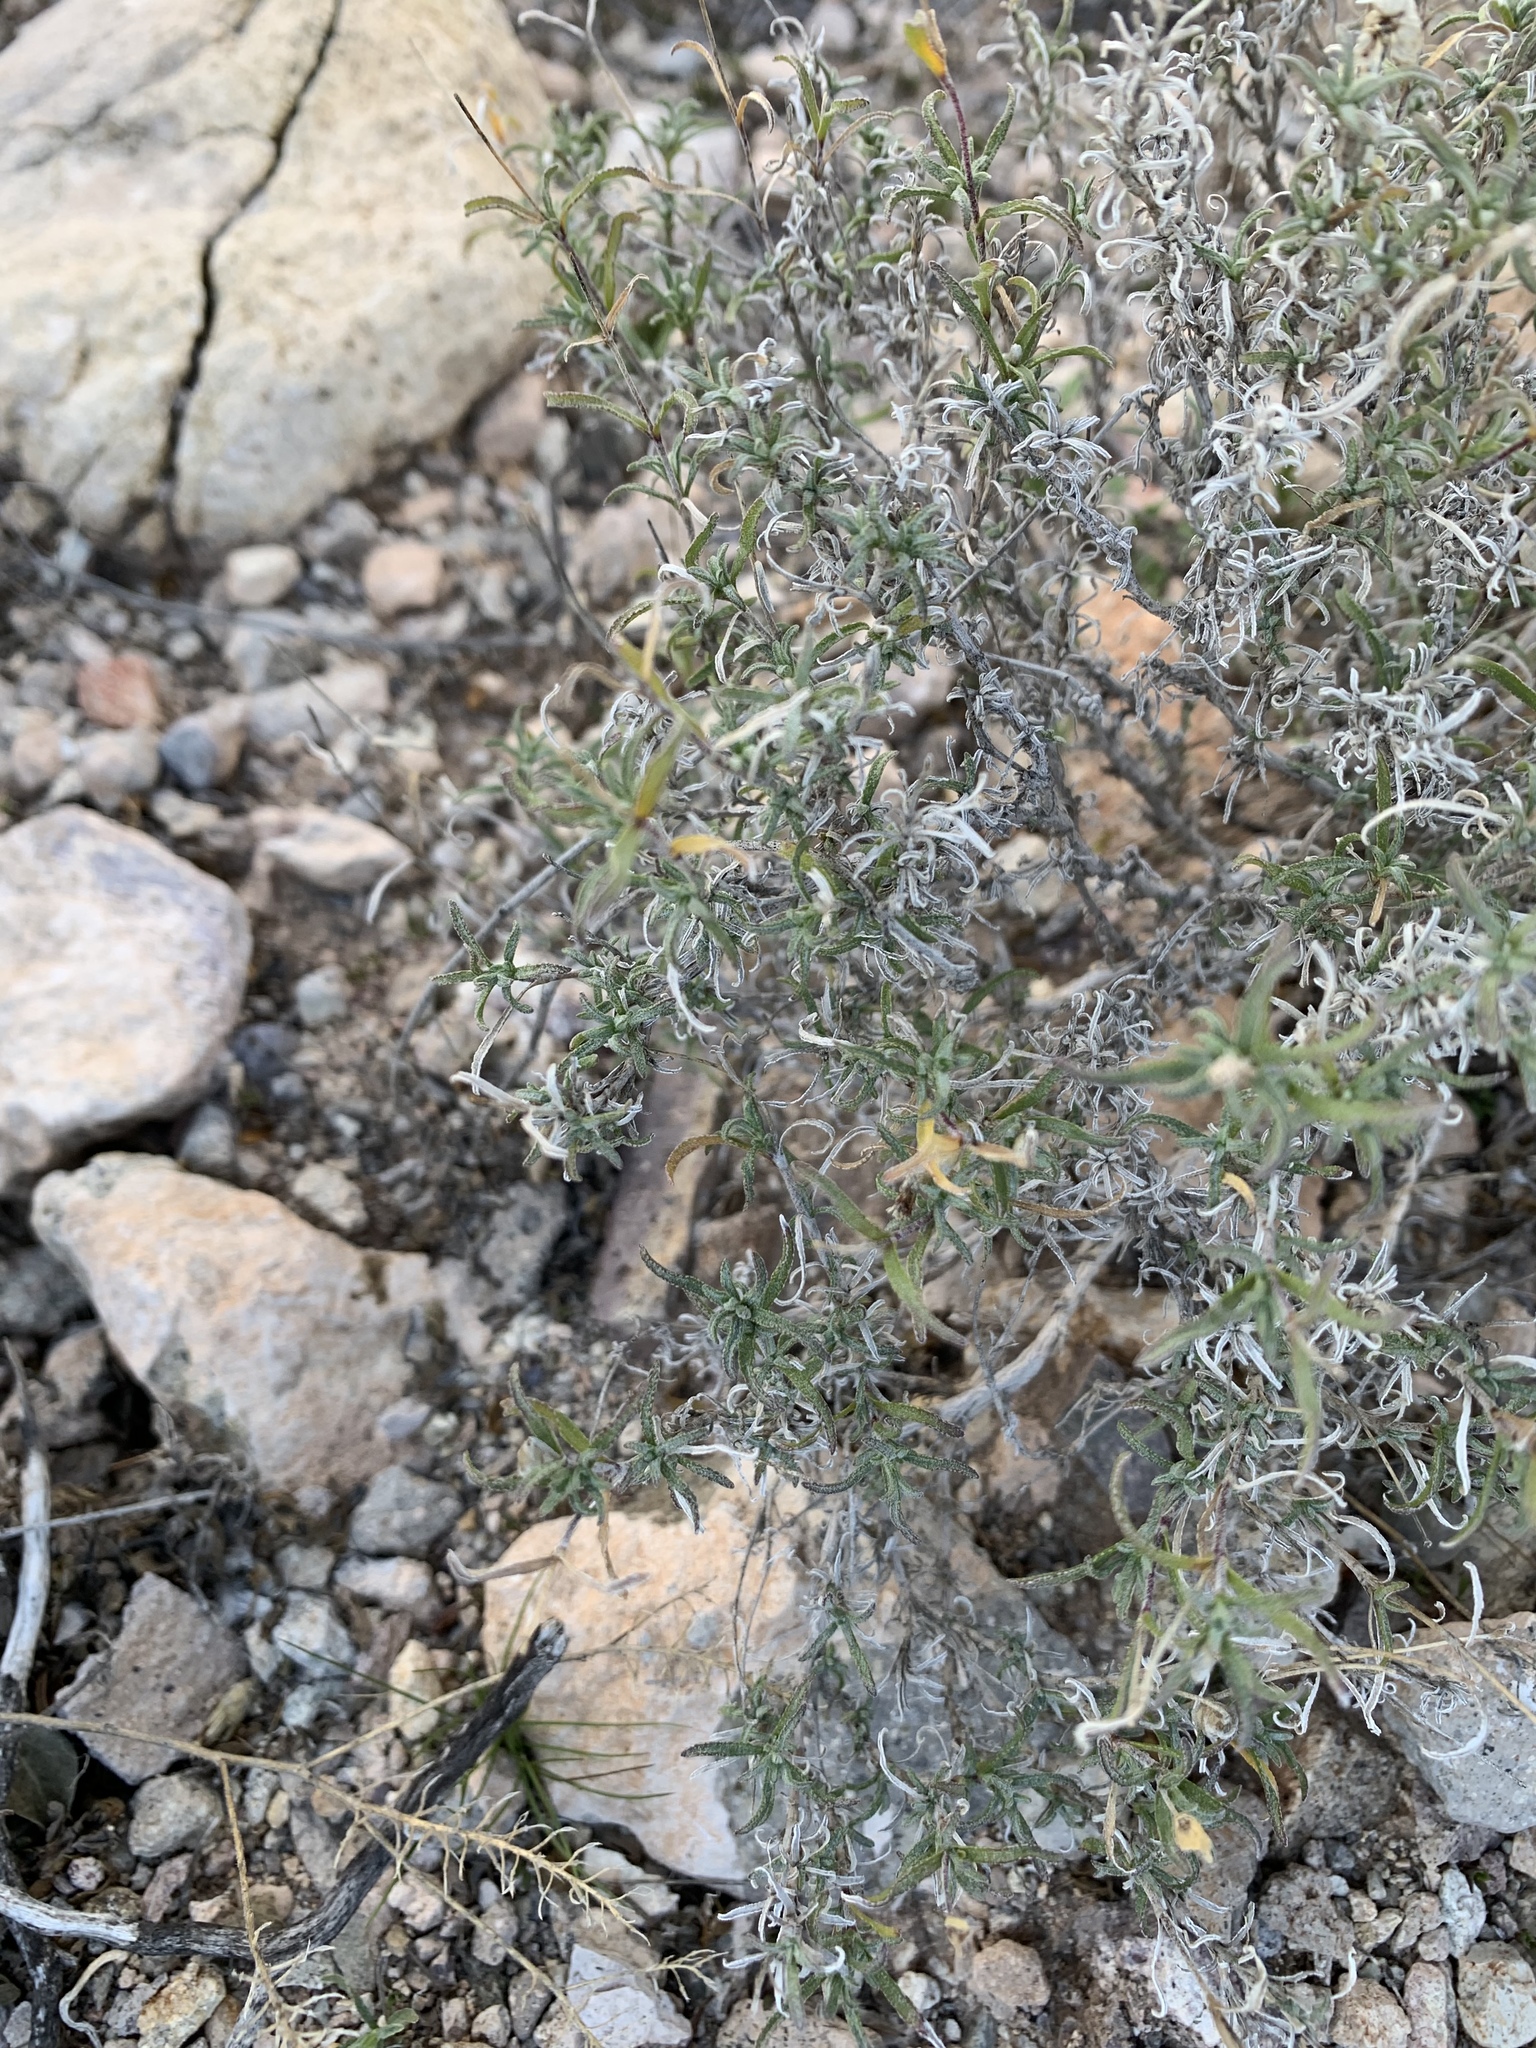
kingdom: Plantae
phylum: Tracheophyta
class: Magnoliopsida
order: Asterales
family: Asteraceae
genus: Zinnia
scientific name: Zinnia acerosa
